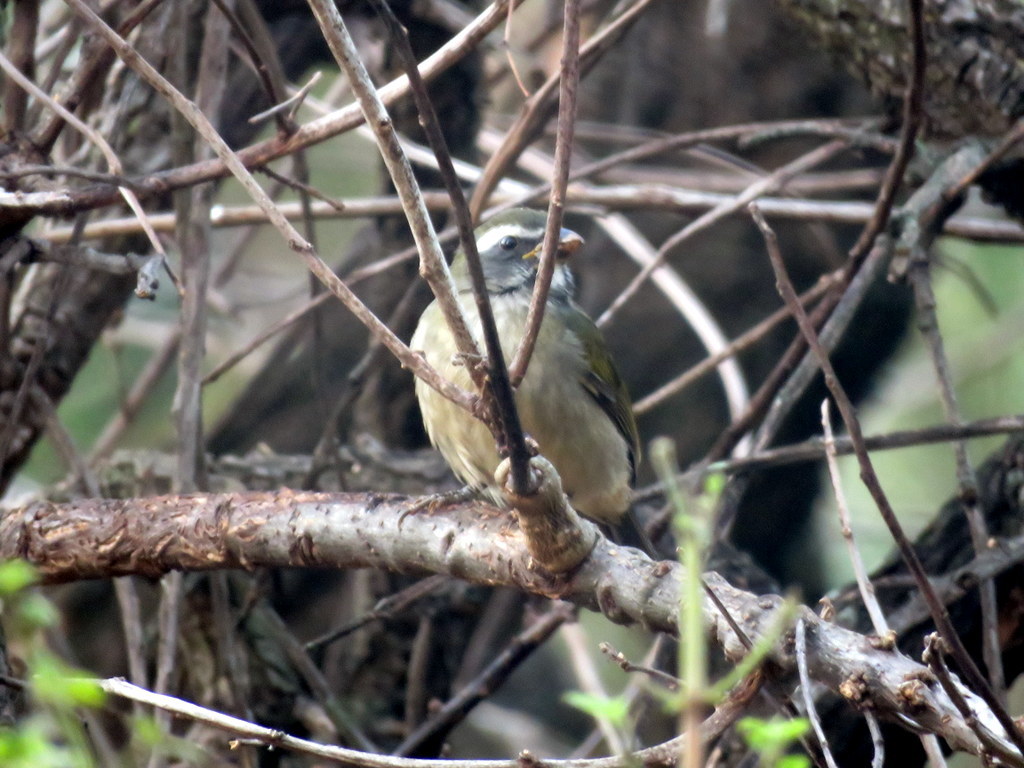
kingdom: Animalia
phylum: Chordata
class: Aves
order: Passeriformes
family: Thraupidae
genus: Saltator
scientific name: Saltator similis
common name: Green-winged saltator
